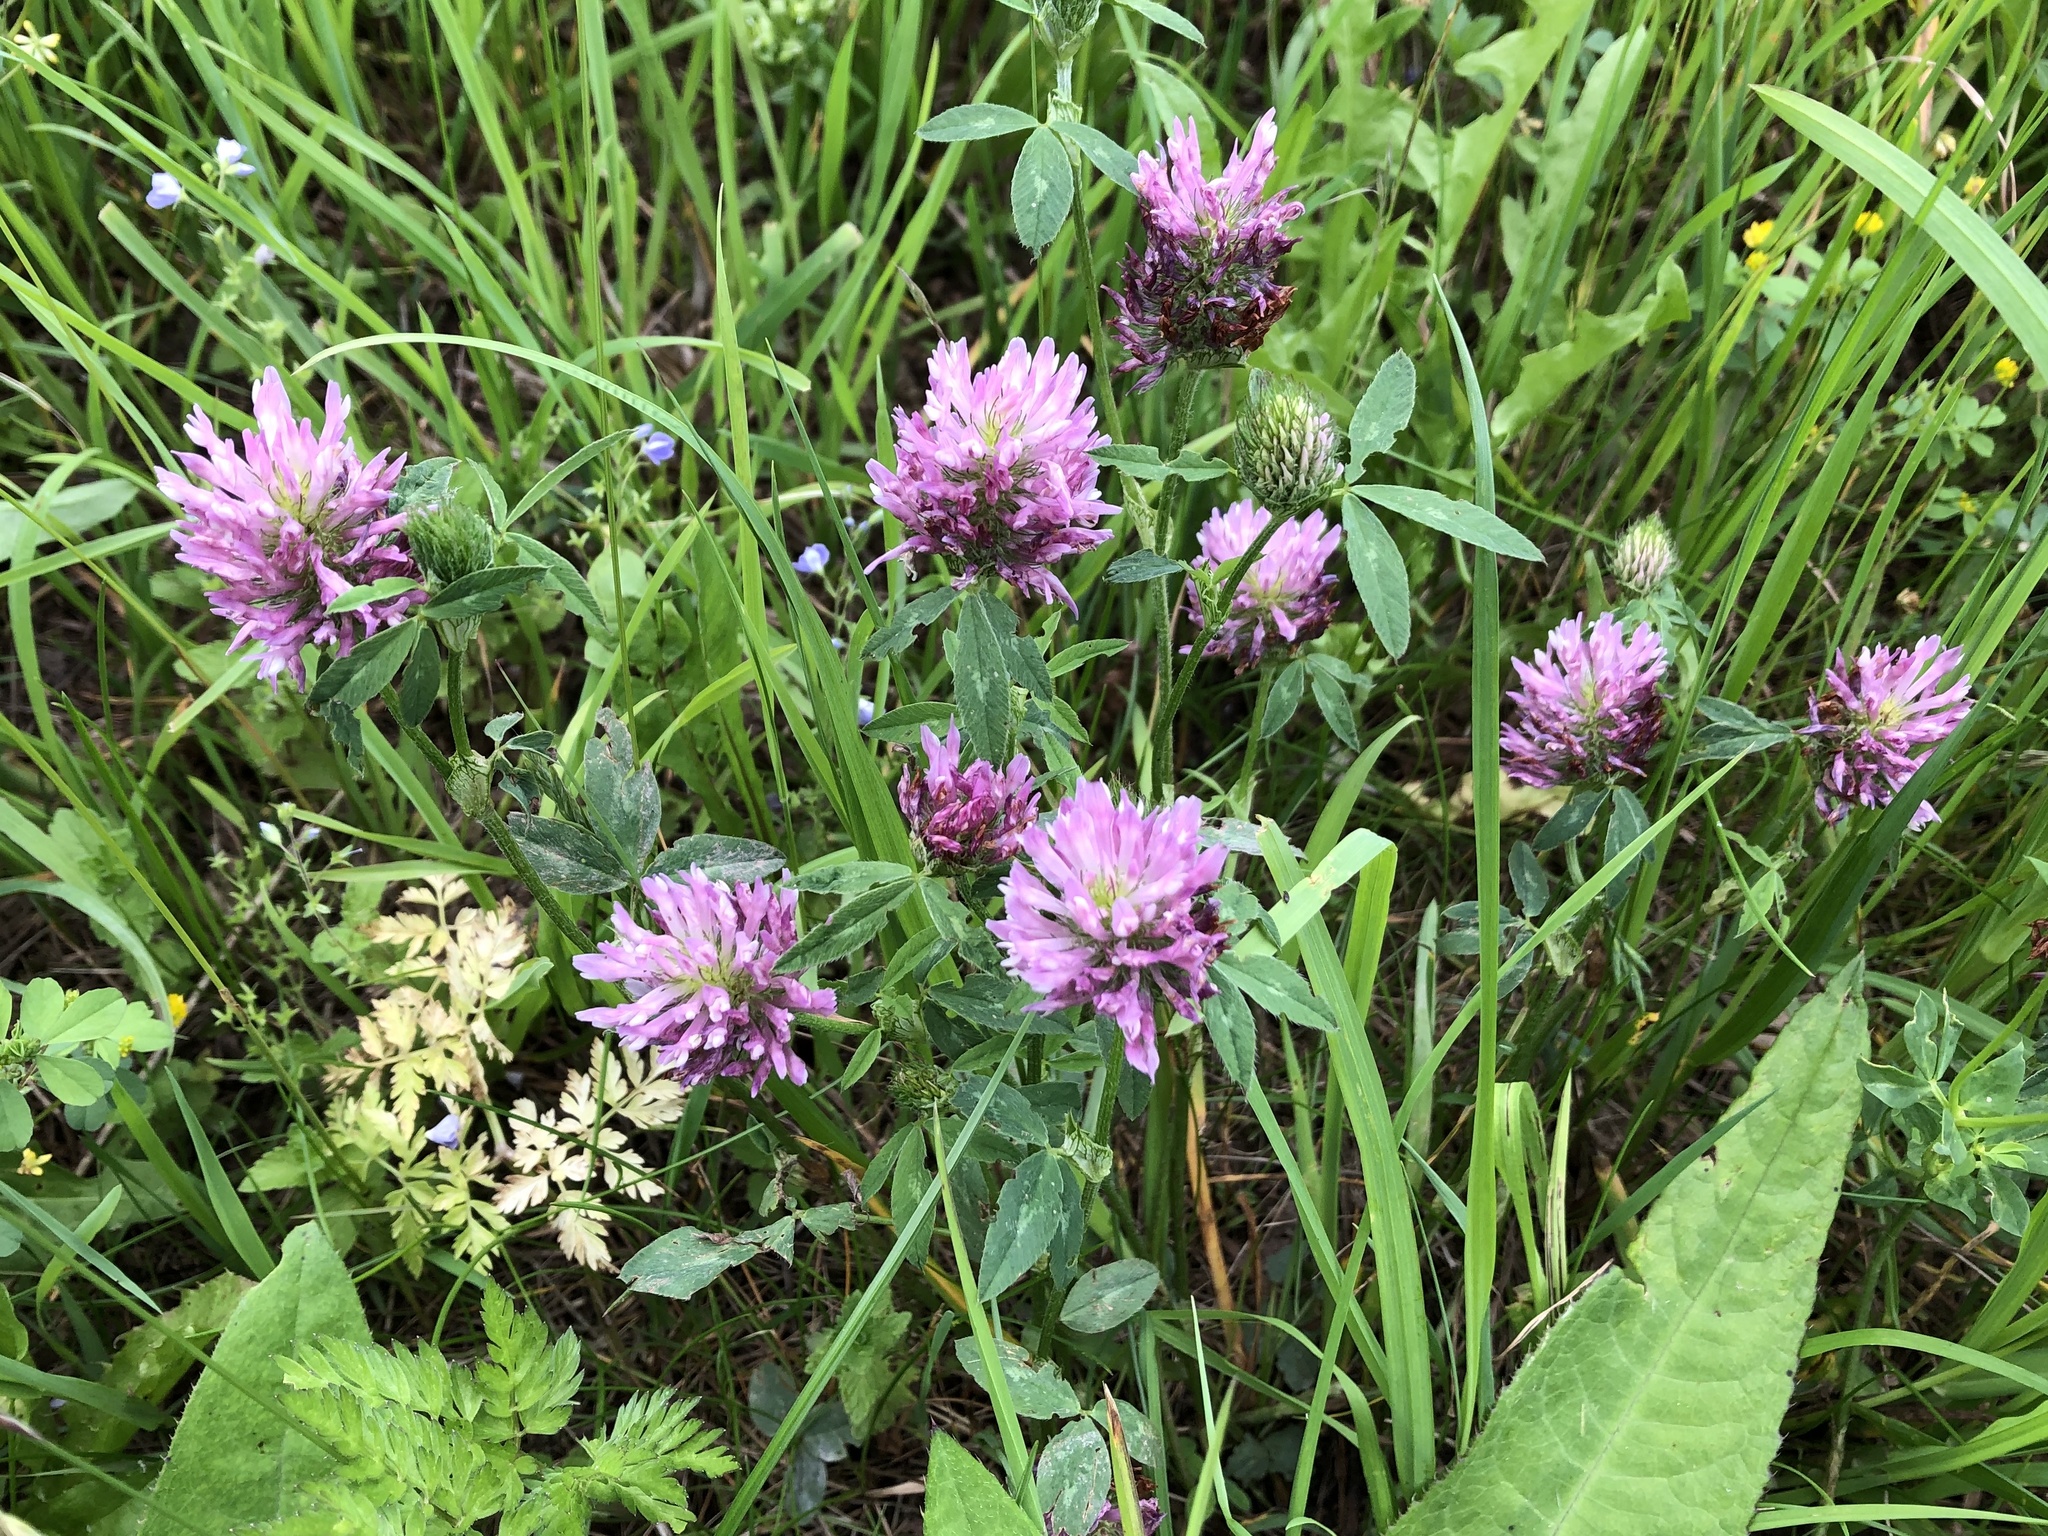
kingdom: Plantae
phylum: Tracheophyta
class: Magnoliopsida
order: Fabales
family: Fabaceae
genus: Trifolium
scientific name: Trifolium pratense
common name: Red clover
